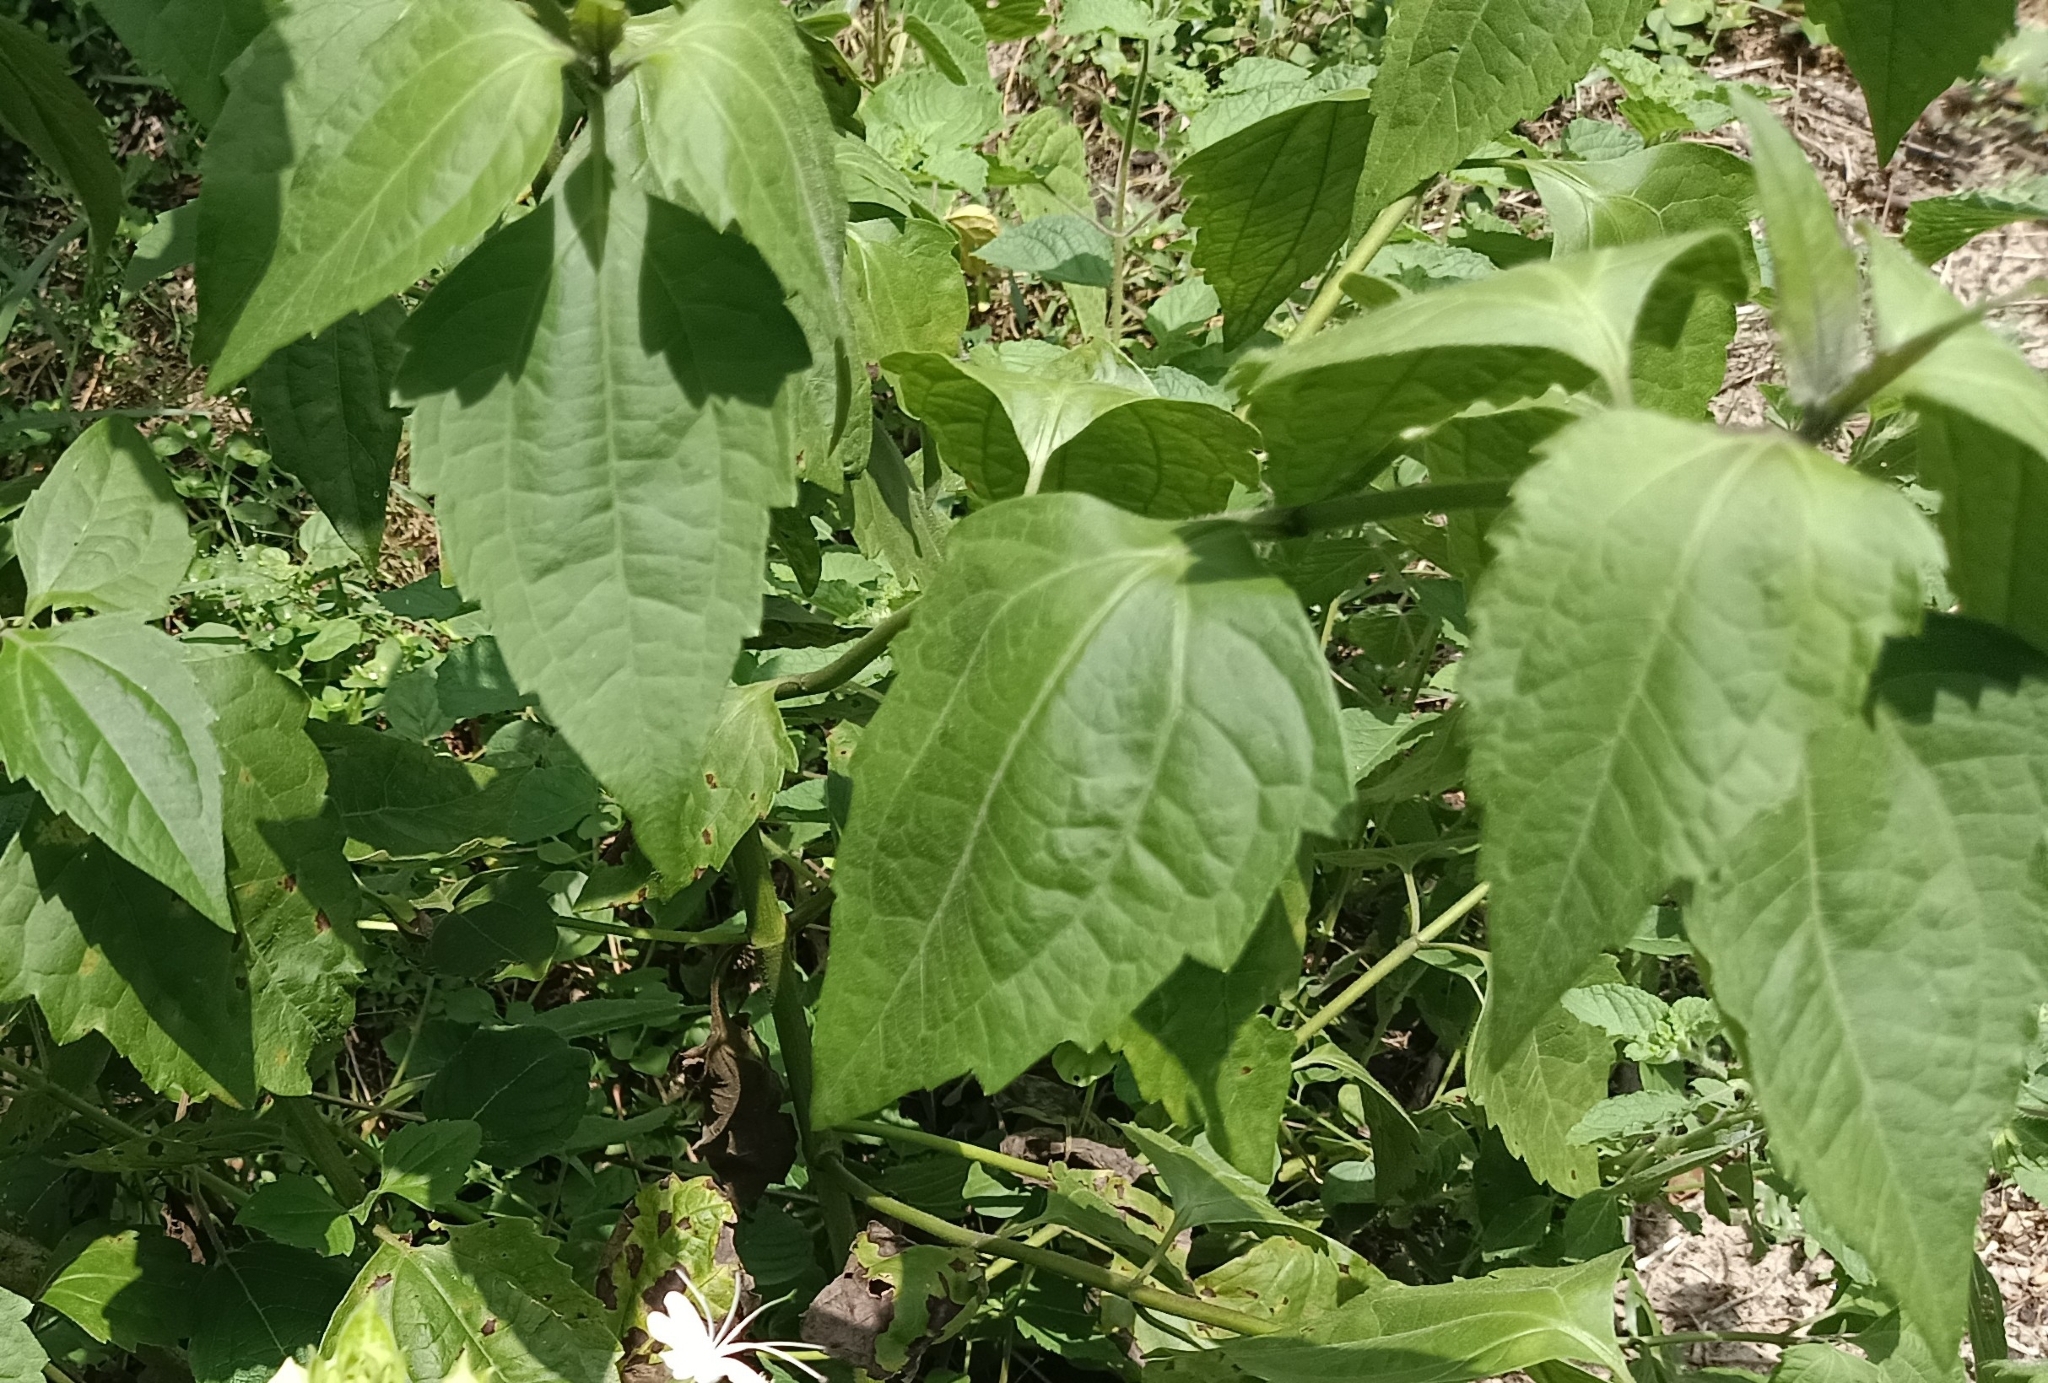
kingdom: Plantae
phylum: Tracheophyta
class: Magnoliopsida
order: Asterales
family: Asteraceae
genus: Chromolaena
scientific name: Chromolaena odorata
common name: Siamweed
